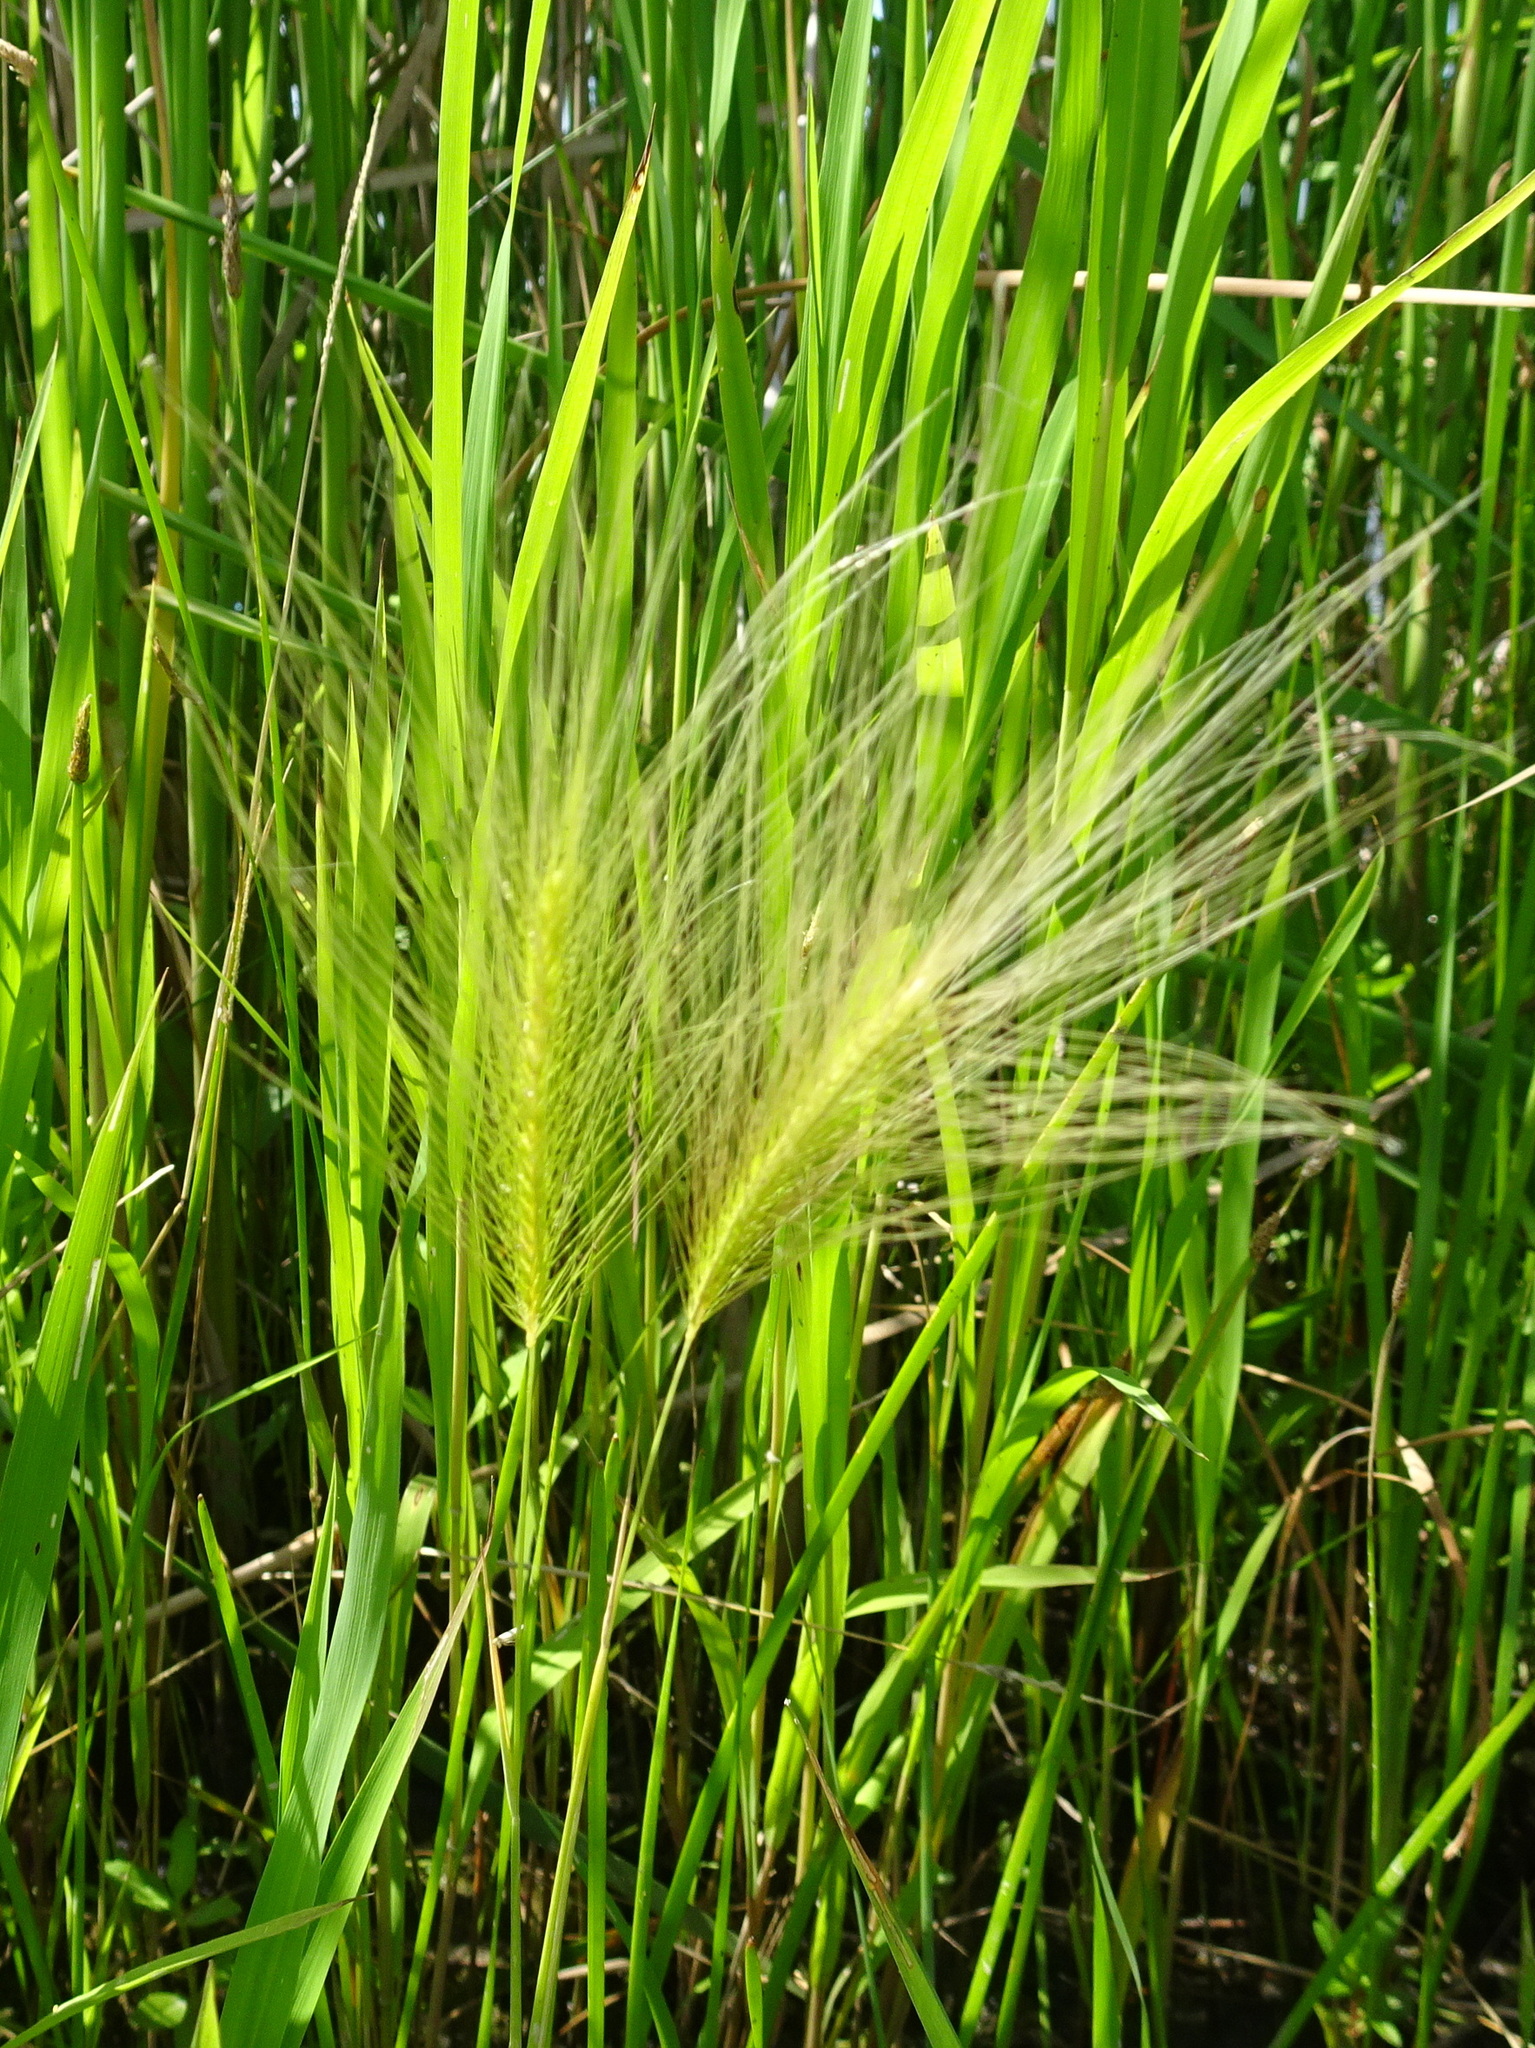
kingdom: Plantae
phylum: Tracheophyta
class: Liliopsida
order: Poales
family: Poaceae
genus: Hordeum
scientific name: Hordeum jubatum
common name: Foxtail barley
